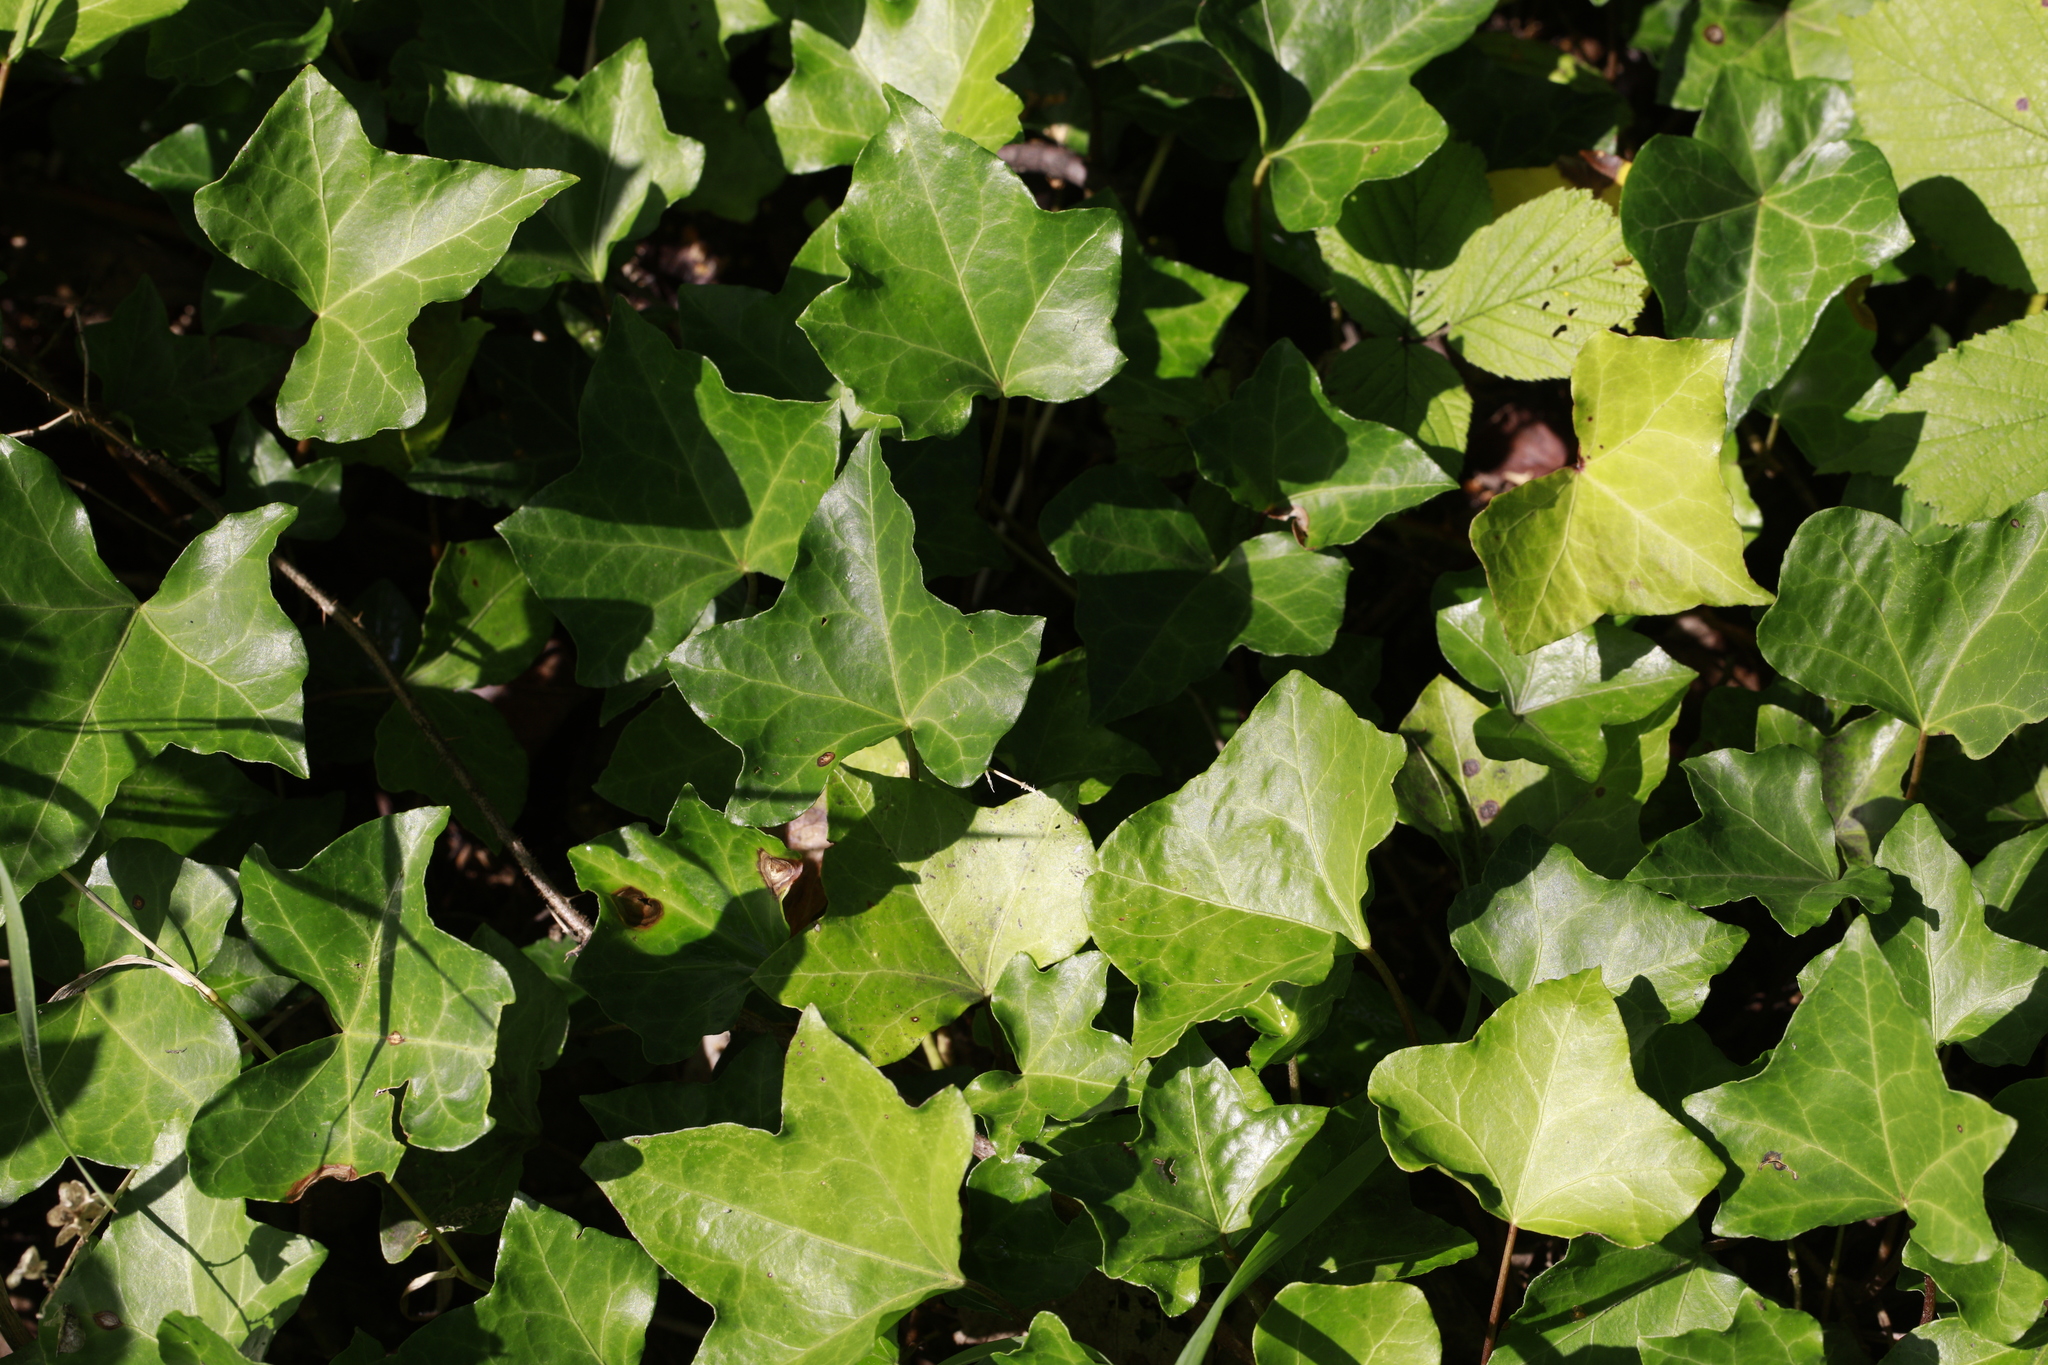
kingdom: Plantae
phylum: Tracheophyta
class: Magnoliopsida
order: Apiales
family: Araliaceae
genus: Hedera
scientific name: Hedera helix
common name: Ivy
